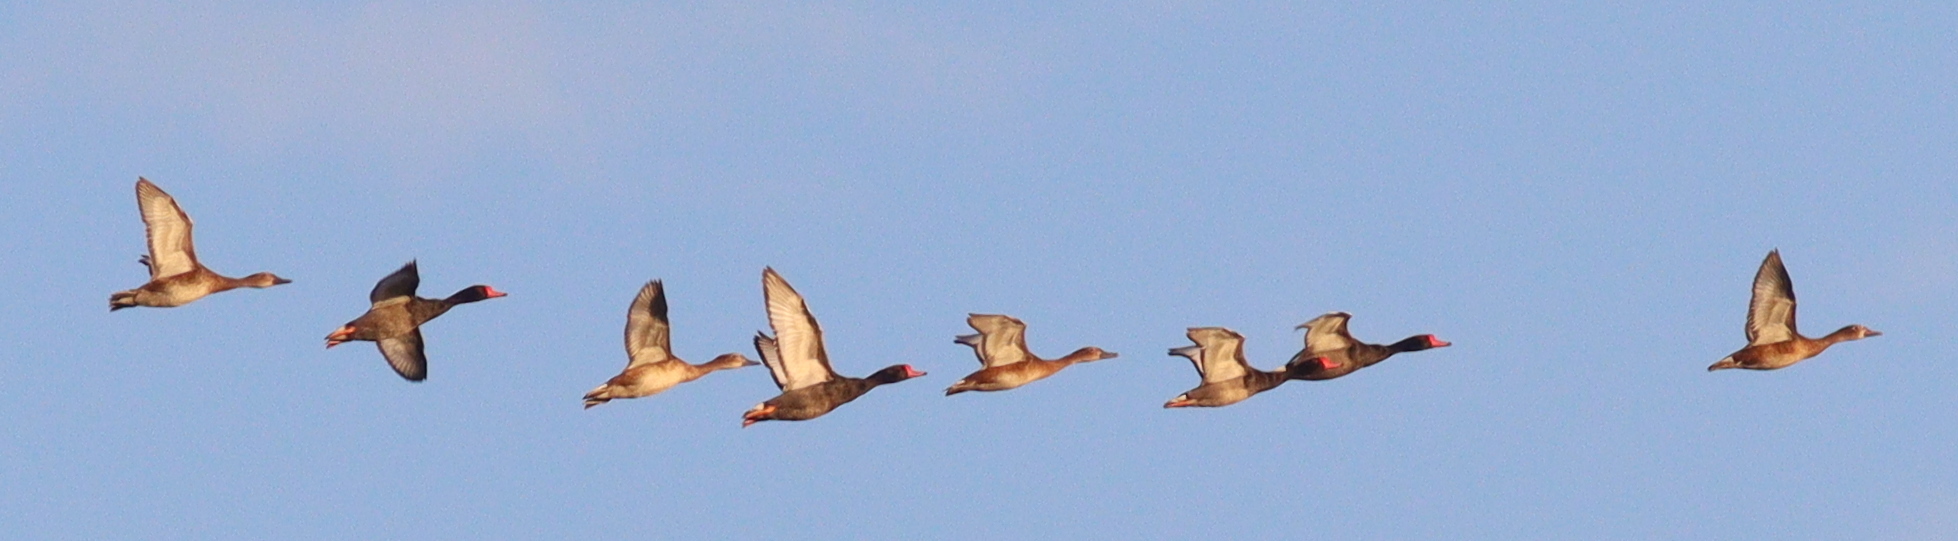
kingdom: Animalia
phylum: Chordata
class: Aves
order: Anseriformes
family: Anatidae
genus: Netta
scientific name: Netta peposaca
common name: Rosy-billed pochard
